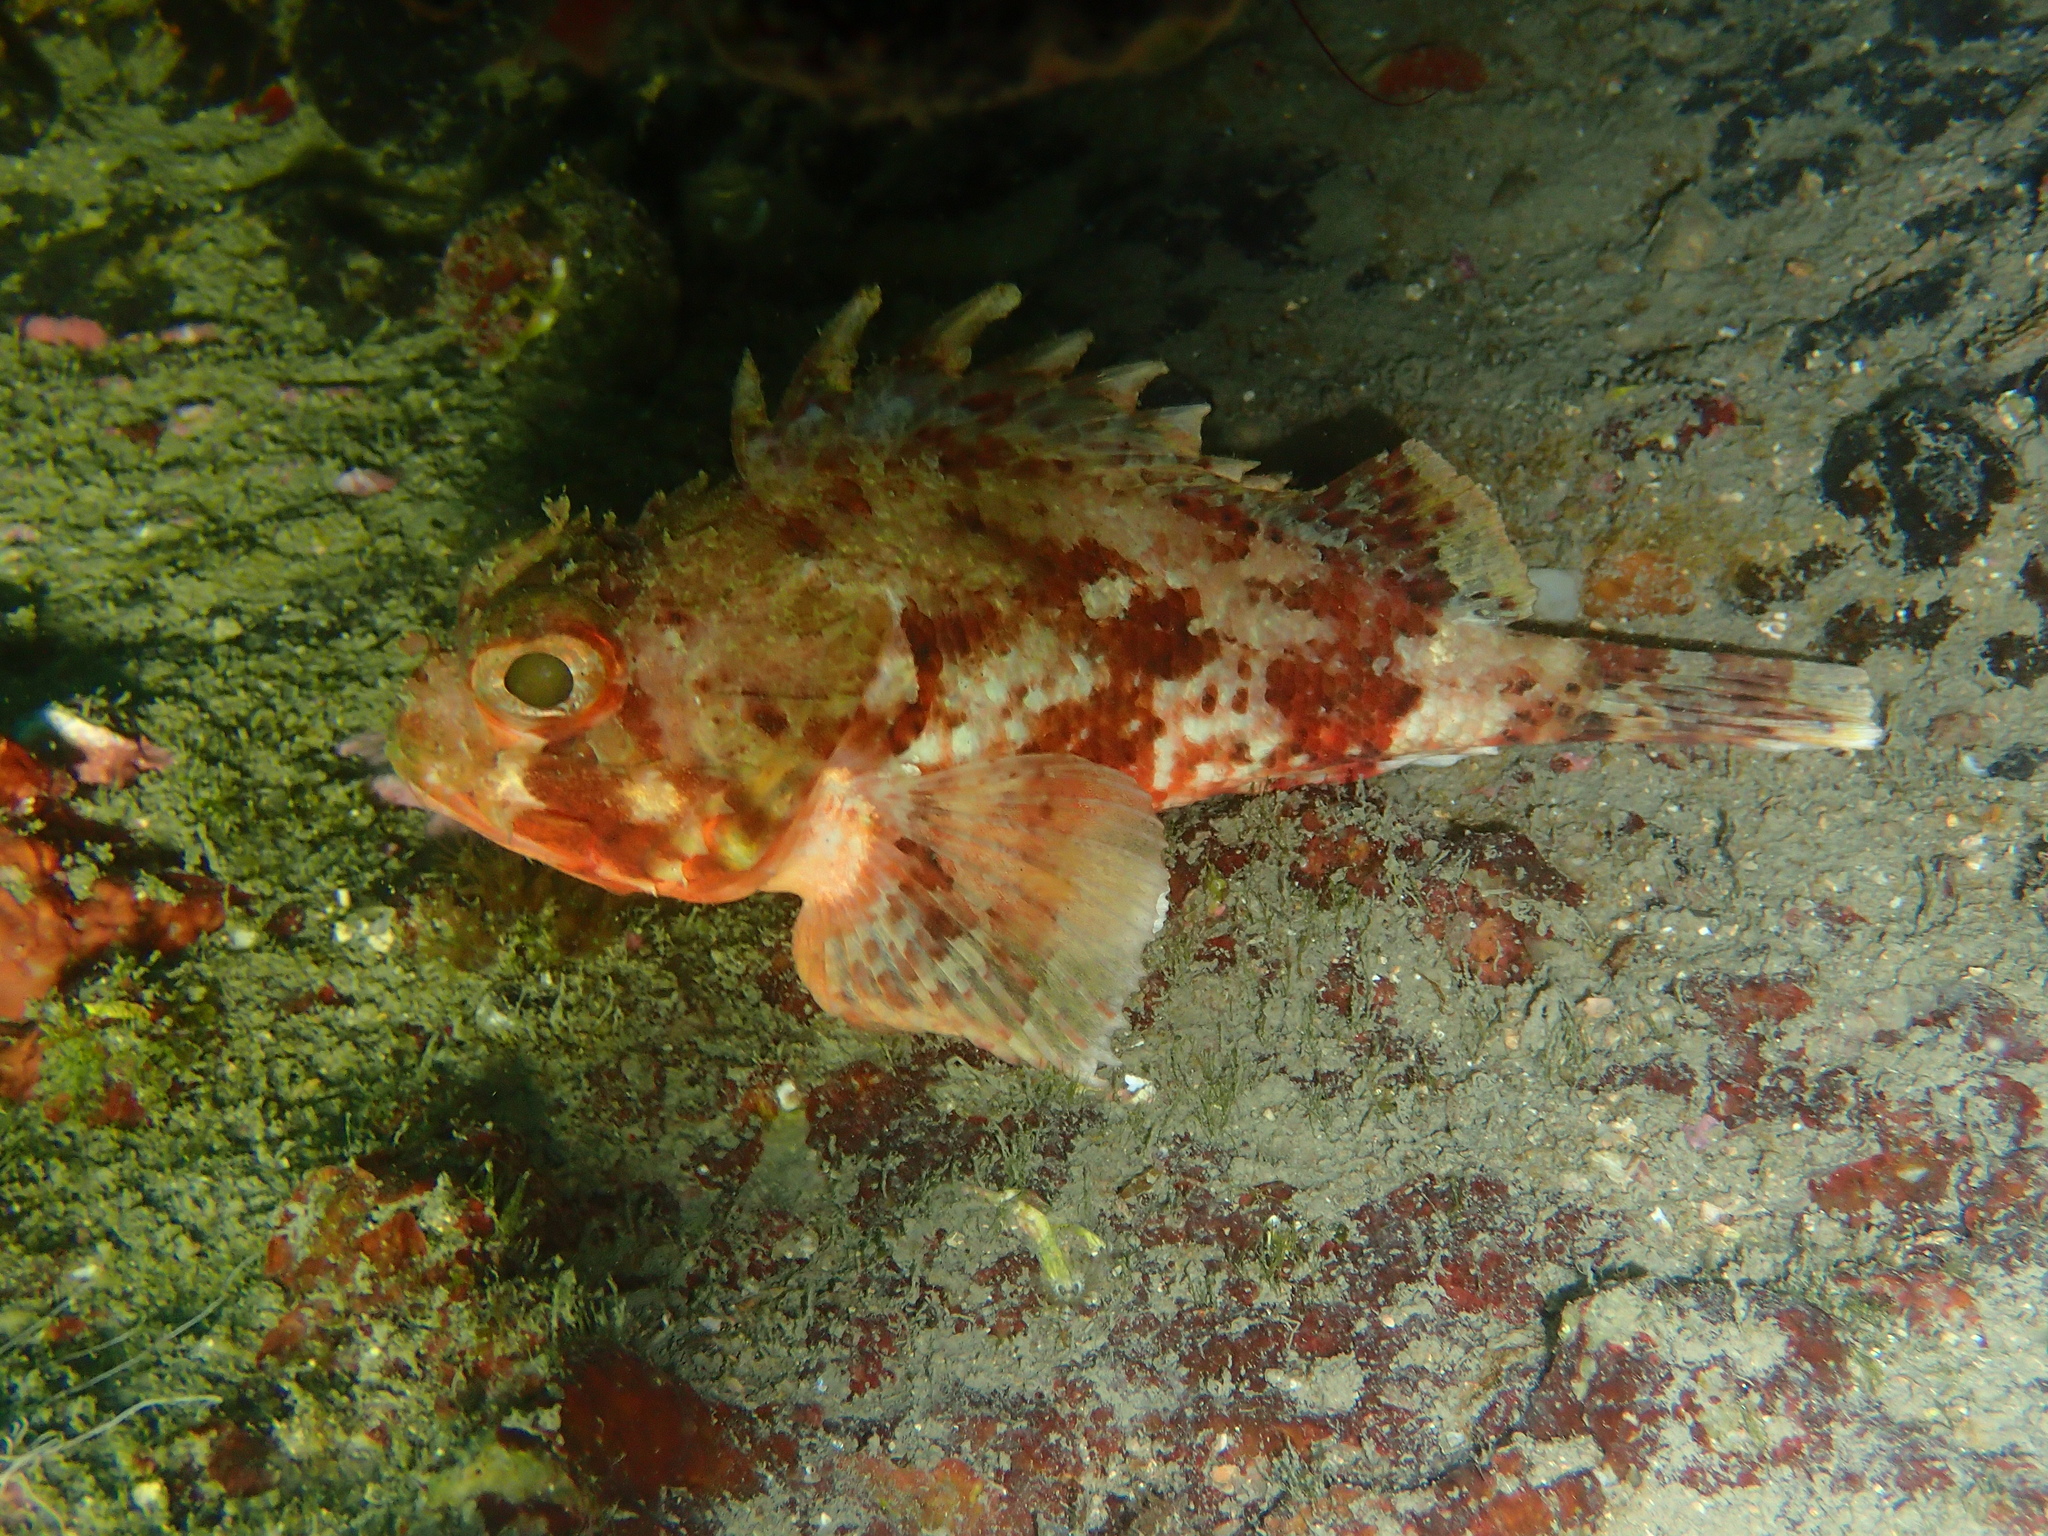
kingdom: Animalia
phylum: Chordata
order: Scorpaeniformes
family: Scorpaenidae
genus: Scorpaena
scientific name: Scorpaena notata
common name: Small red scorpionfish
